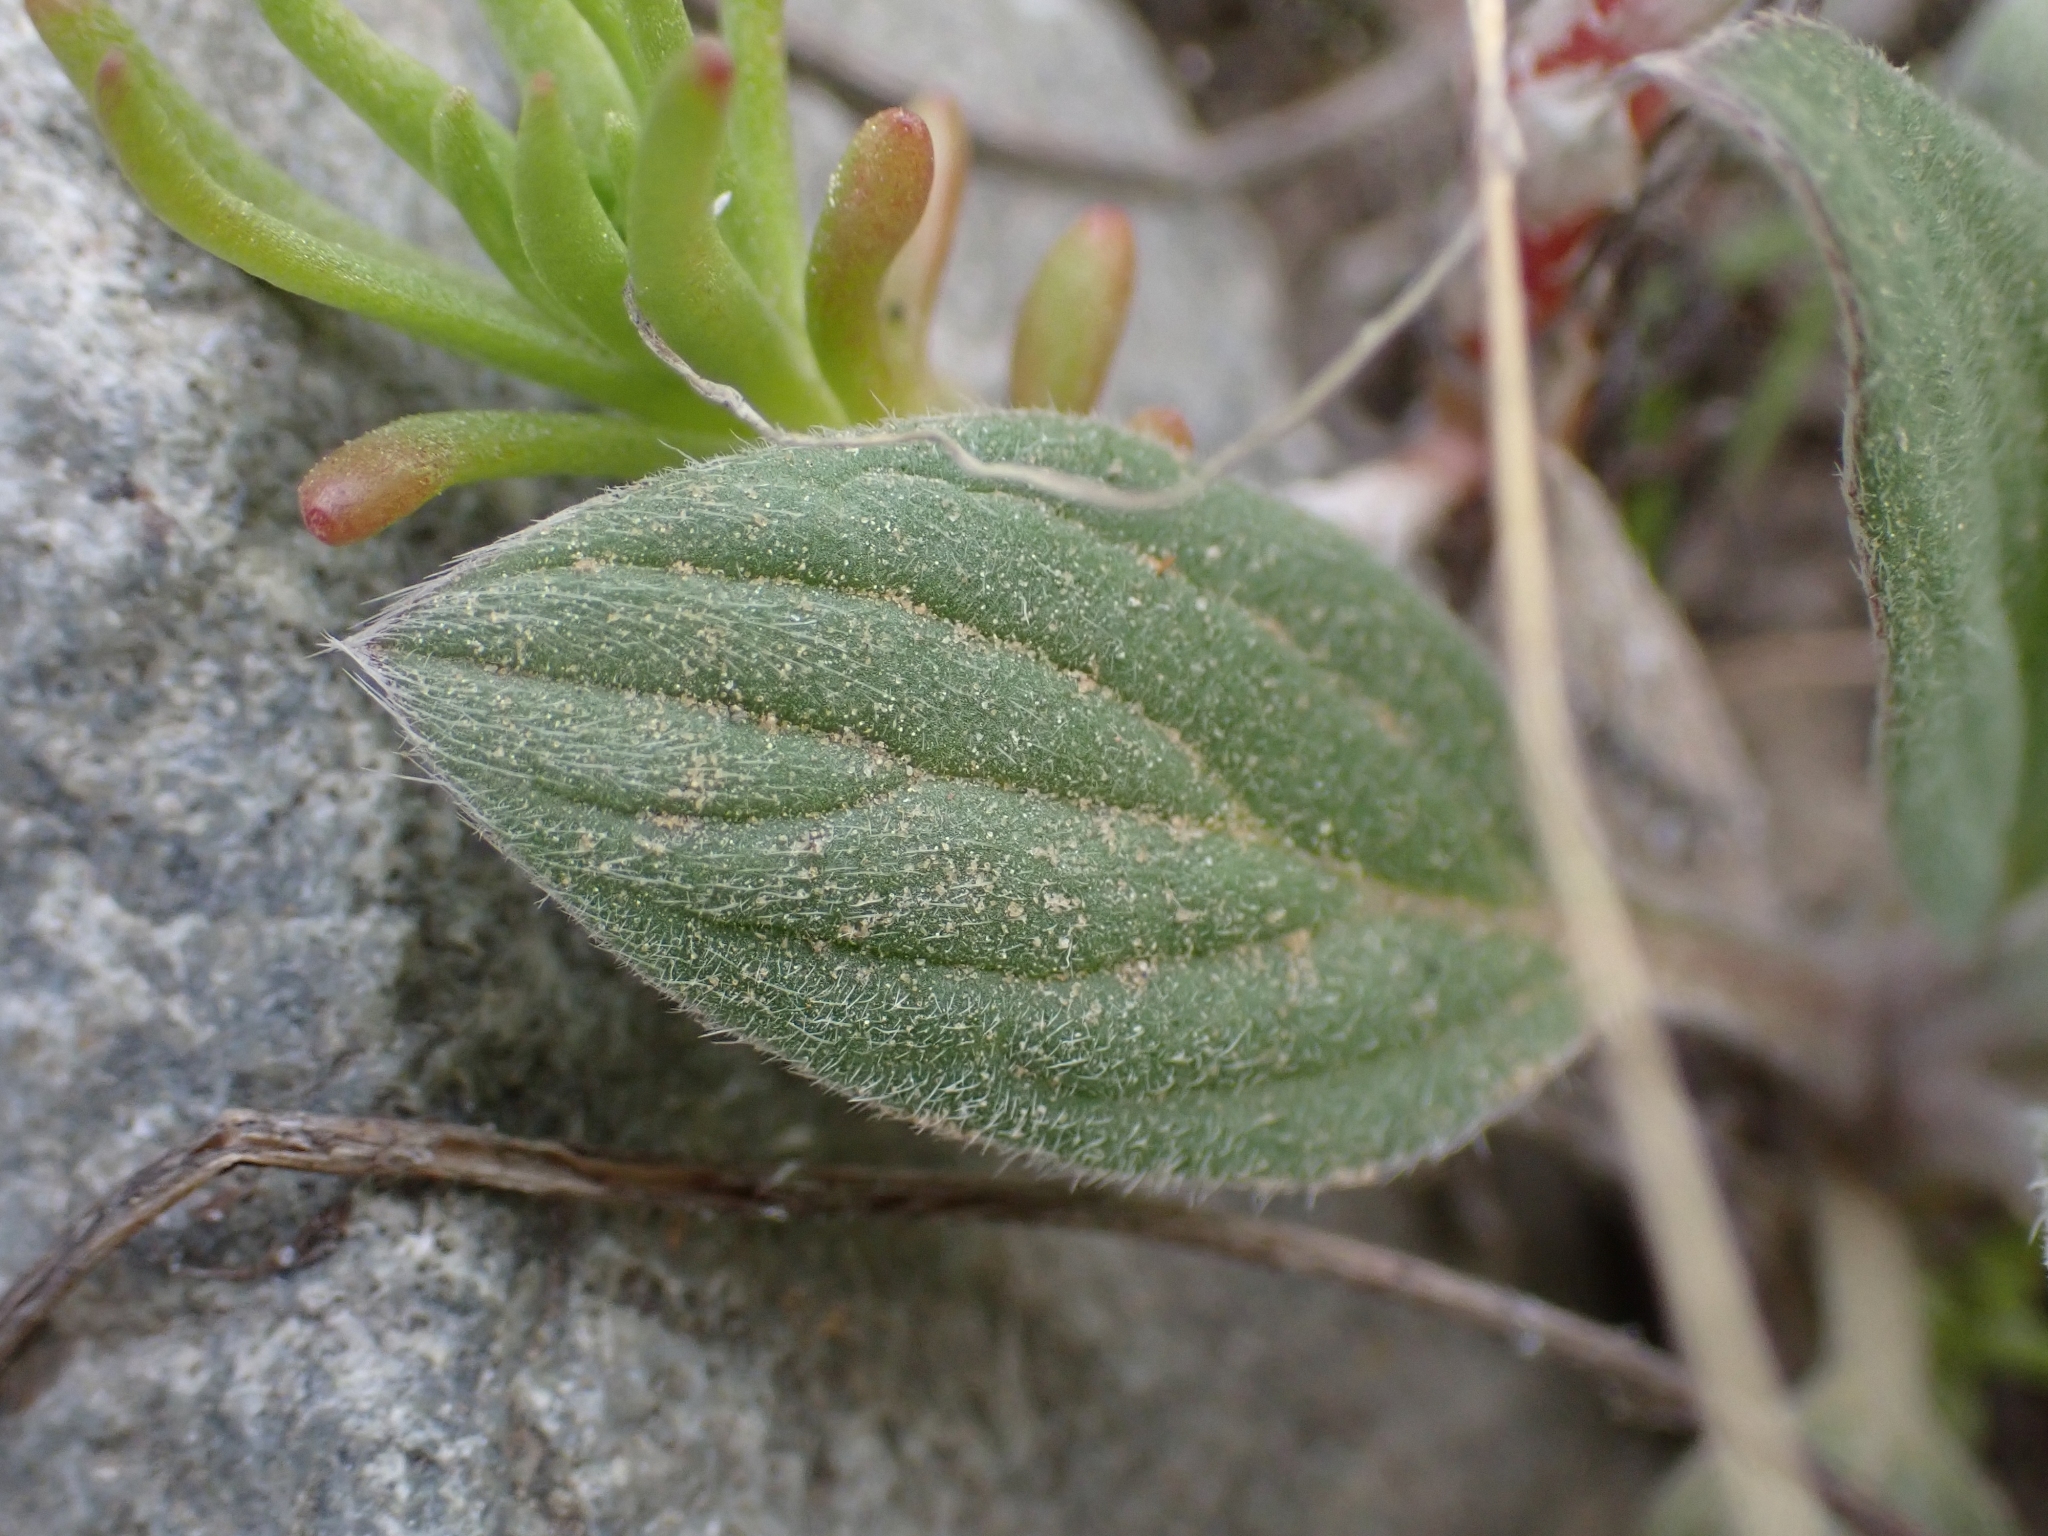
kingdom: Plantae
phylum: Tracheophyta
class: Magnoliopsida
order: Boraginales
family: Hydrophyllaceae
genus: Phacelia
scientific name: Phacelia hastata
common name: Silver-leaved phacelia
